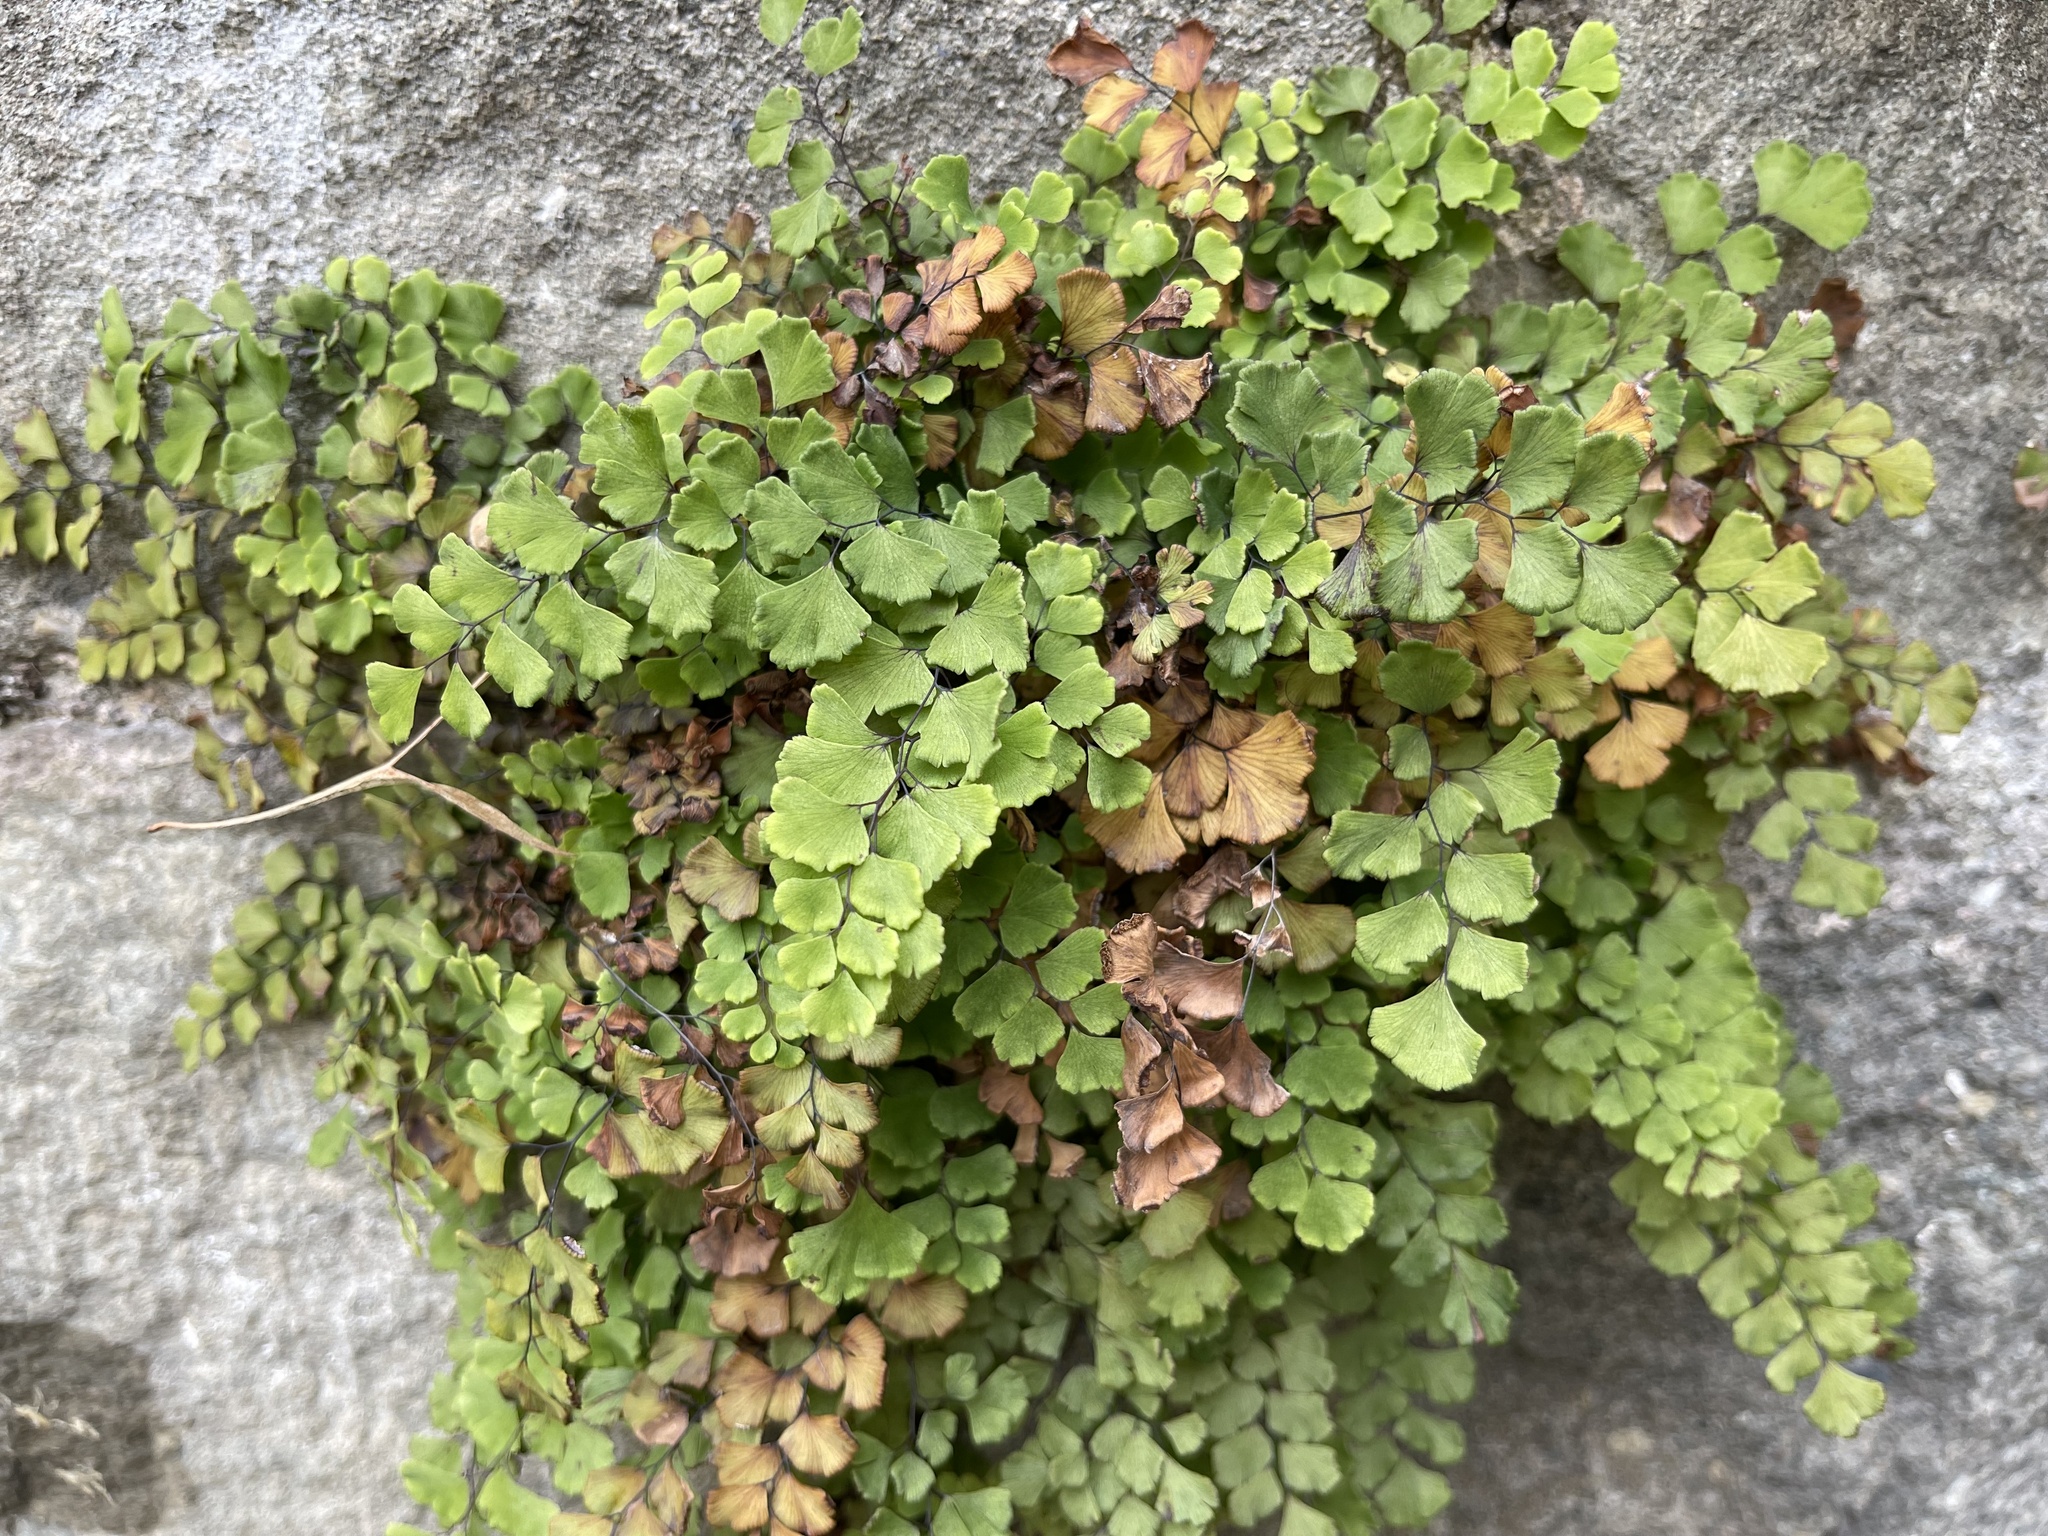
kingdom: Plantae
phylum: Tracheophyta
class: Polypodiopsida
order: Polypodiales
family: Pteridaceae
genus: Adiantum
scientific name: Adiantum capillus-veneris
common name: Maidenhair fern
